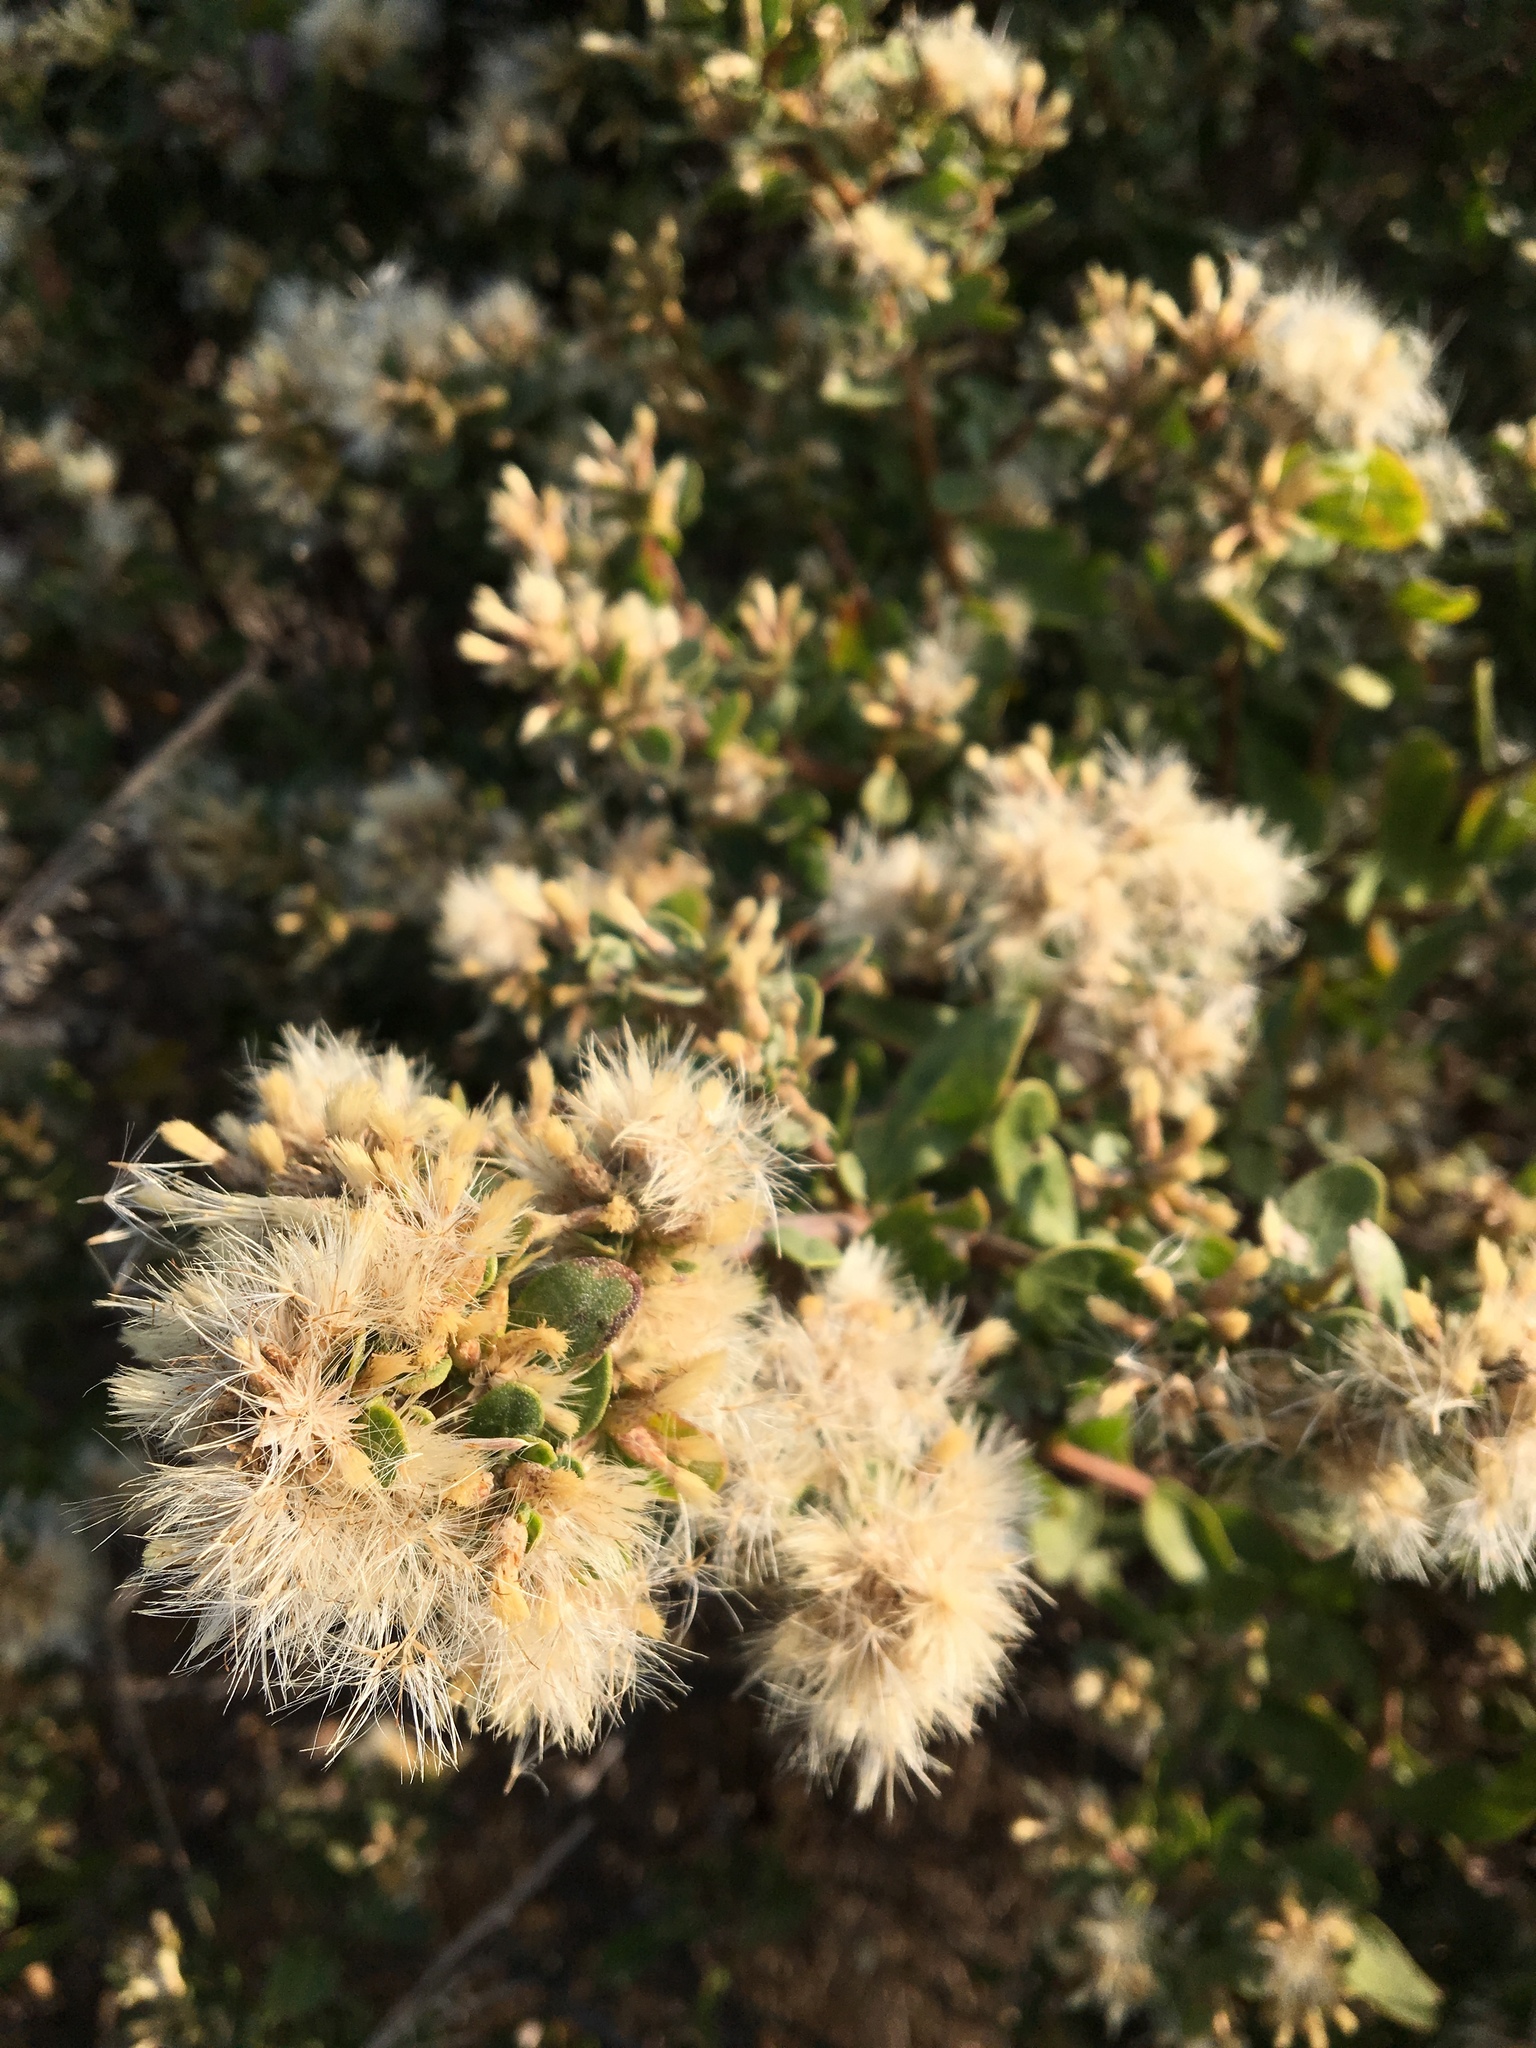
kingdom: Plantae
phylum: Tracheophyta
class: Magnoliopsida
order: Asterales
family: Asteraceae
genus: Baccharis
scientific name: Baccharis pilularis
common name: Coyotebrush
